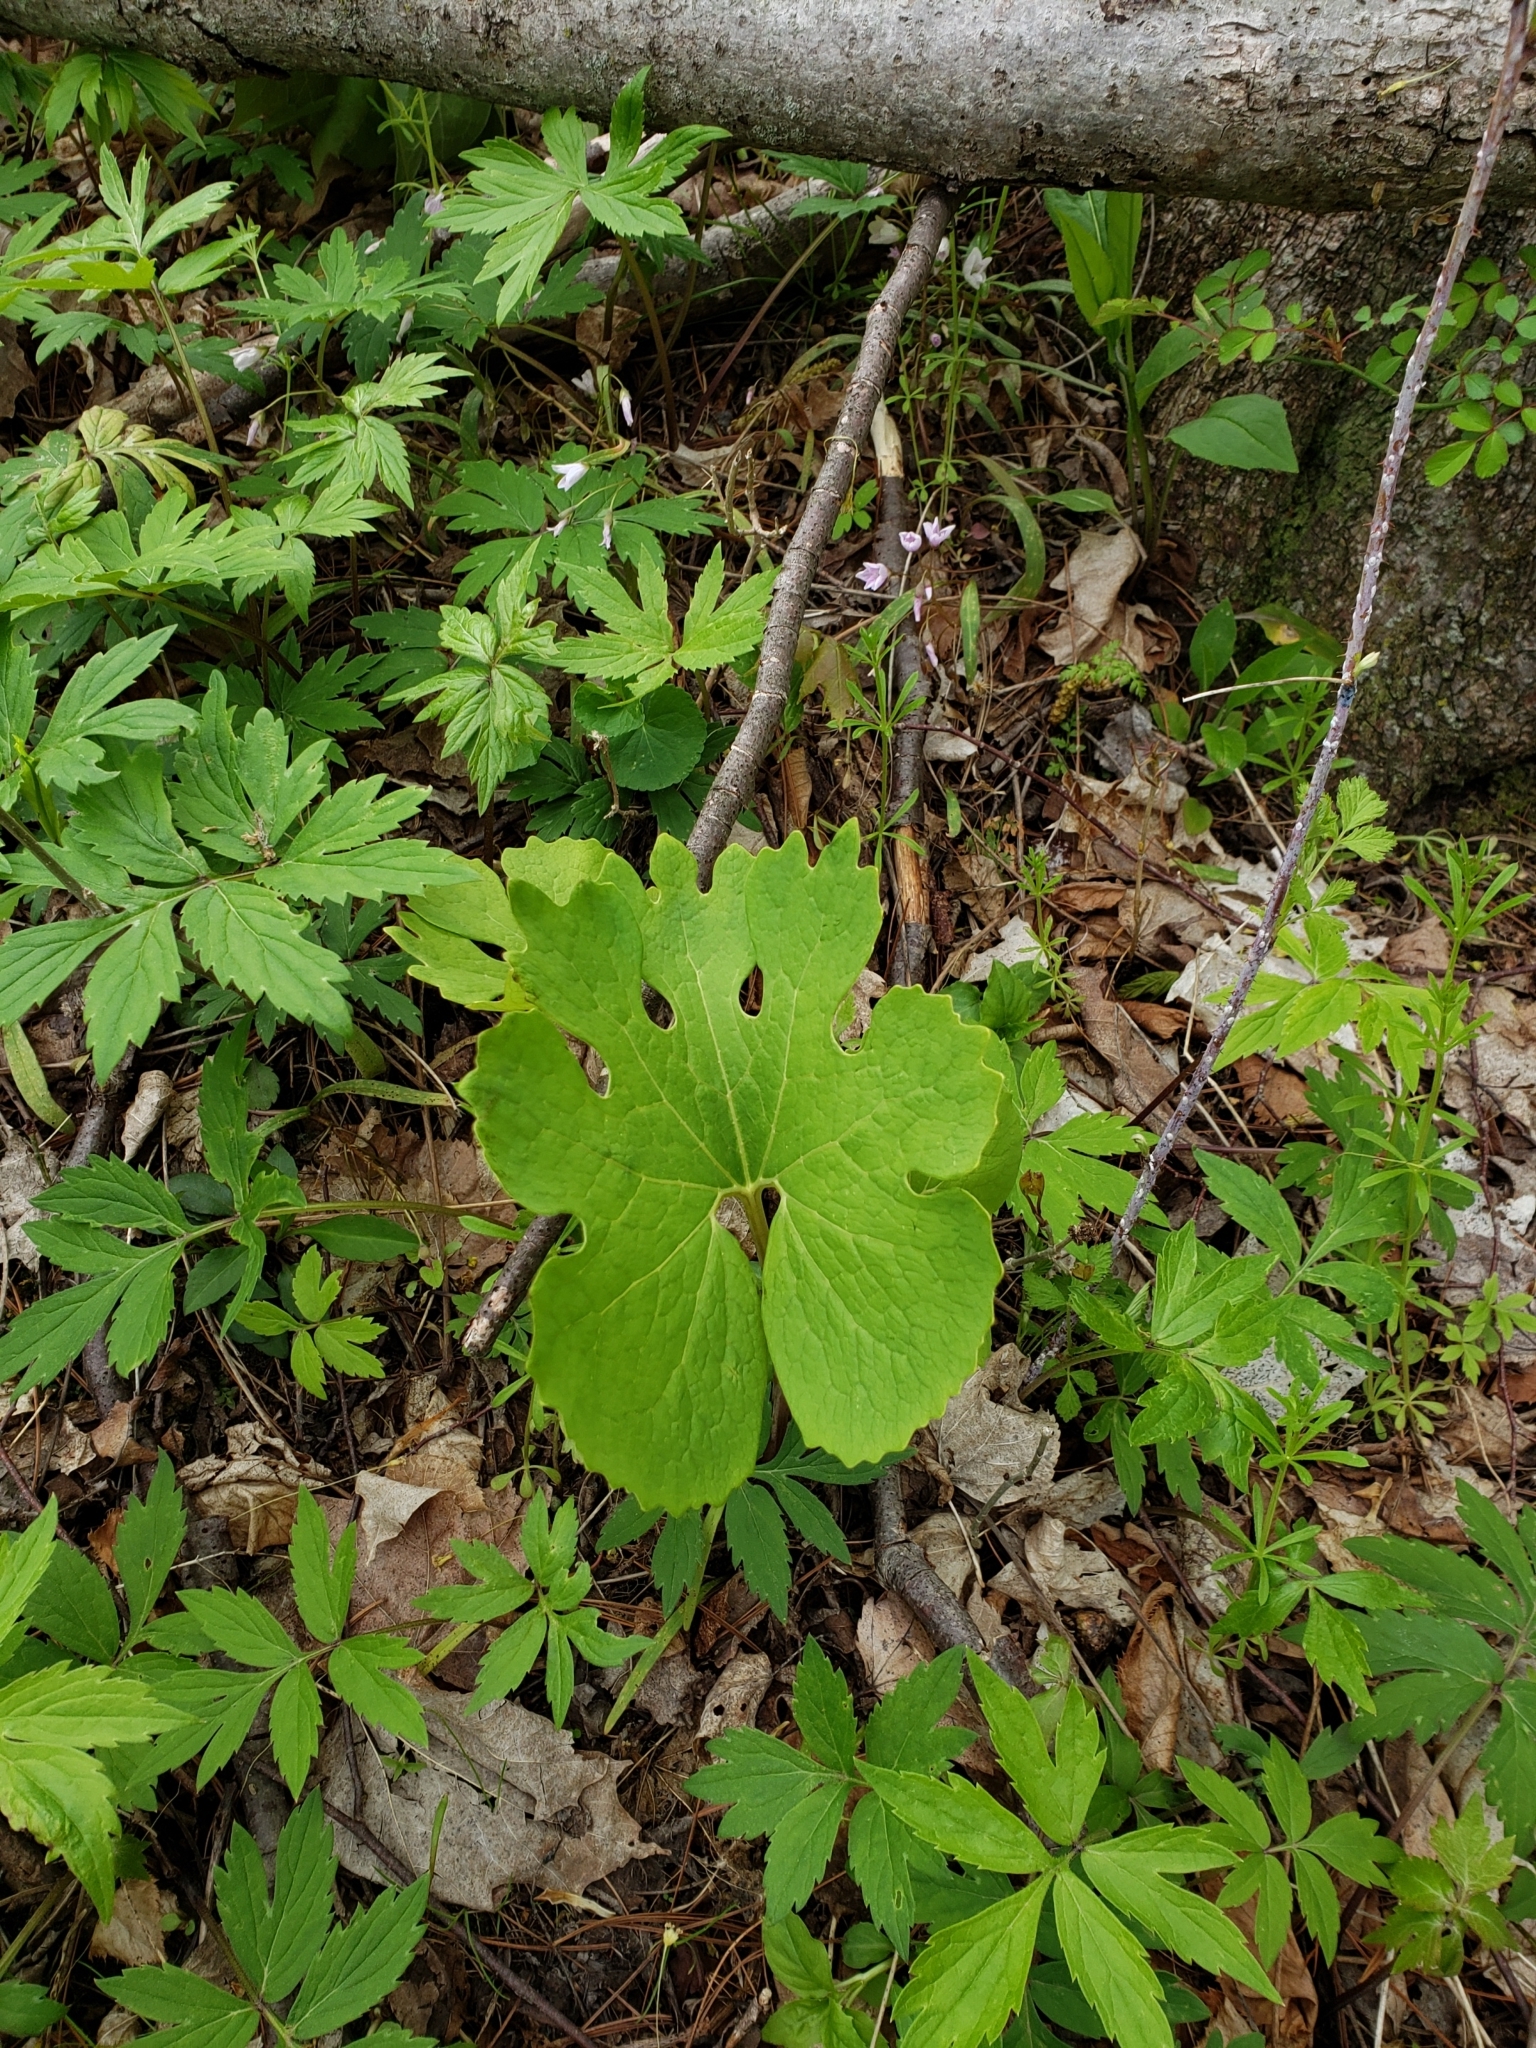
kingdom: Plantae
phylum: Tracheophyta
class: Magnoliopsida
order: Ranunculales
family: Papaveraceae
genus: Sanguinaria
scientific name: Sanguinaria canadensis
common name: Bloodroot
